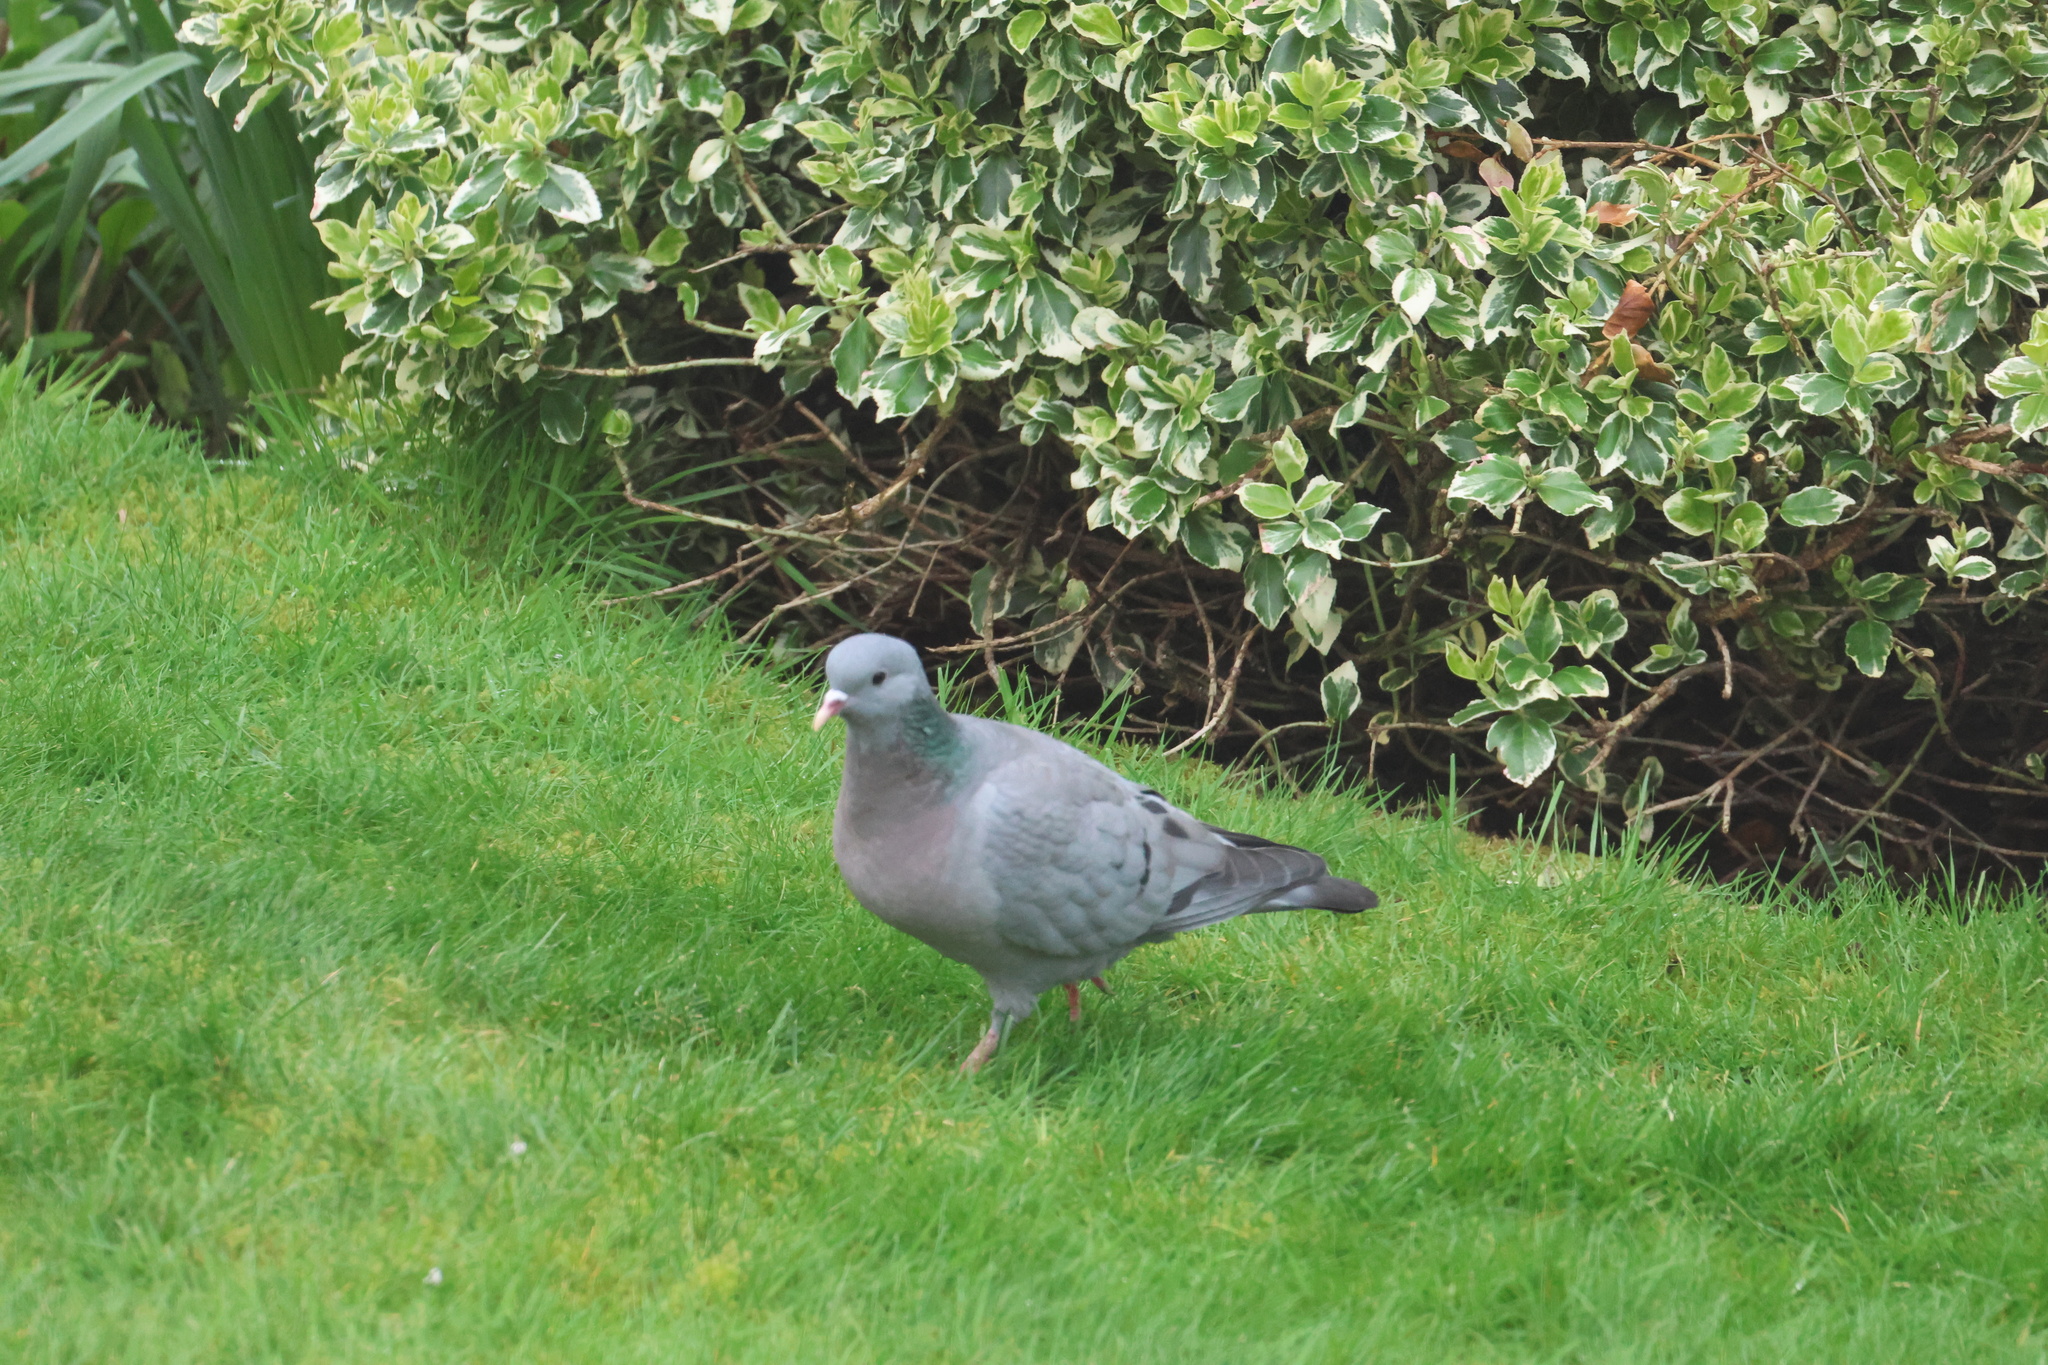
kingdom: Animalia
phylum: Chordata
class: Aves
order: Columbiformes
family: Columbidae
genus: Columba
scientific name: Columba oenas
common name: Stock dove
